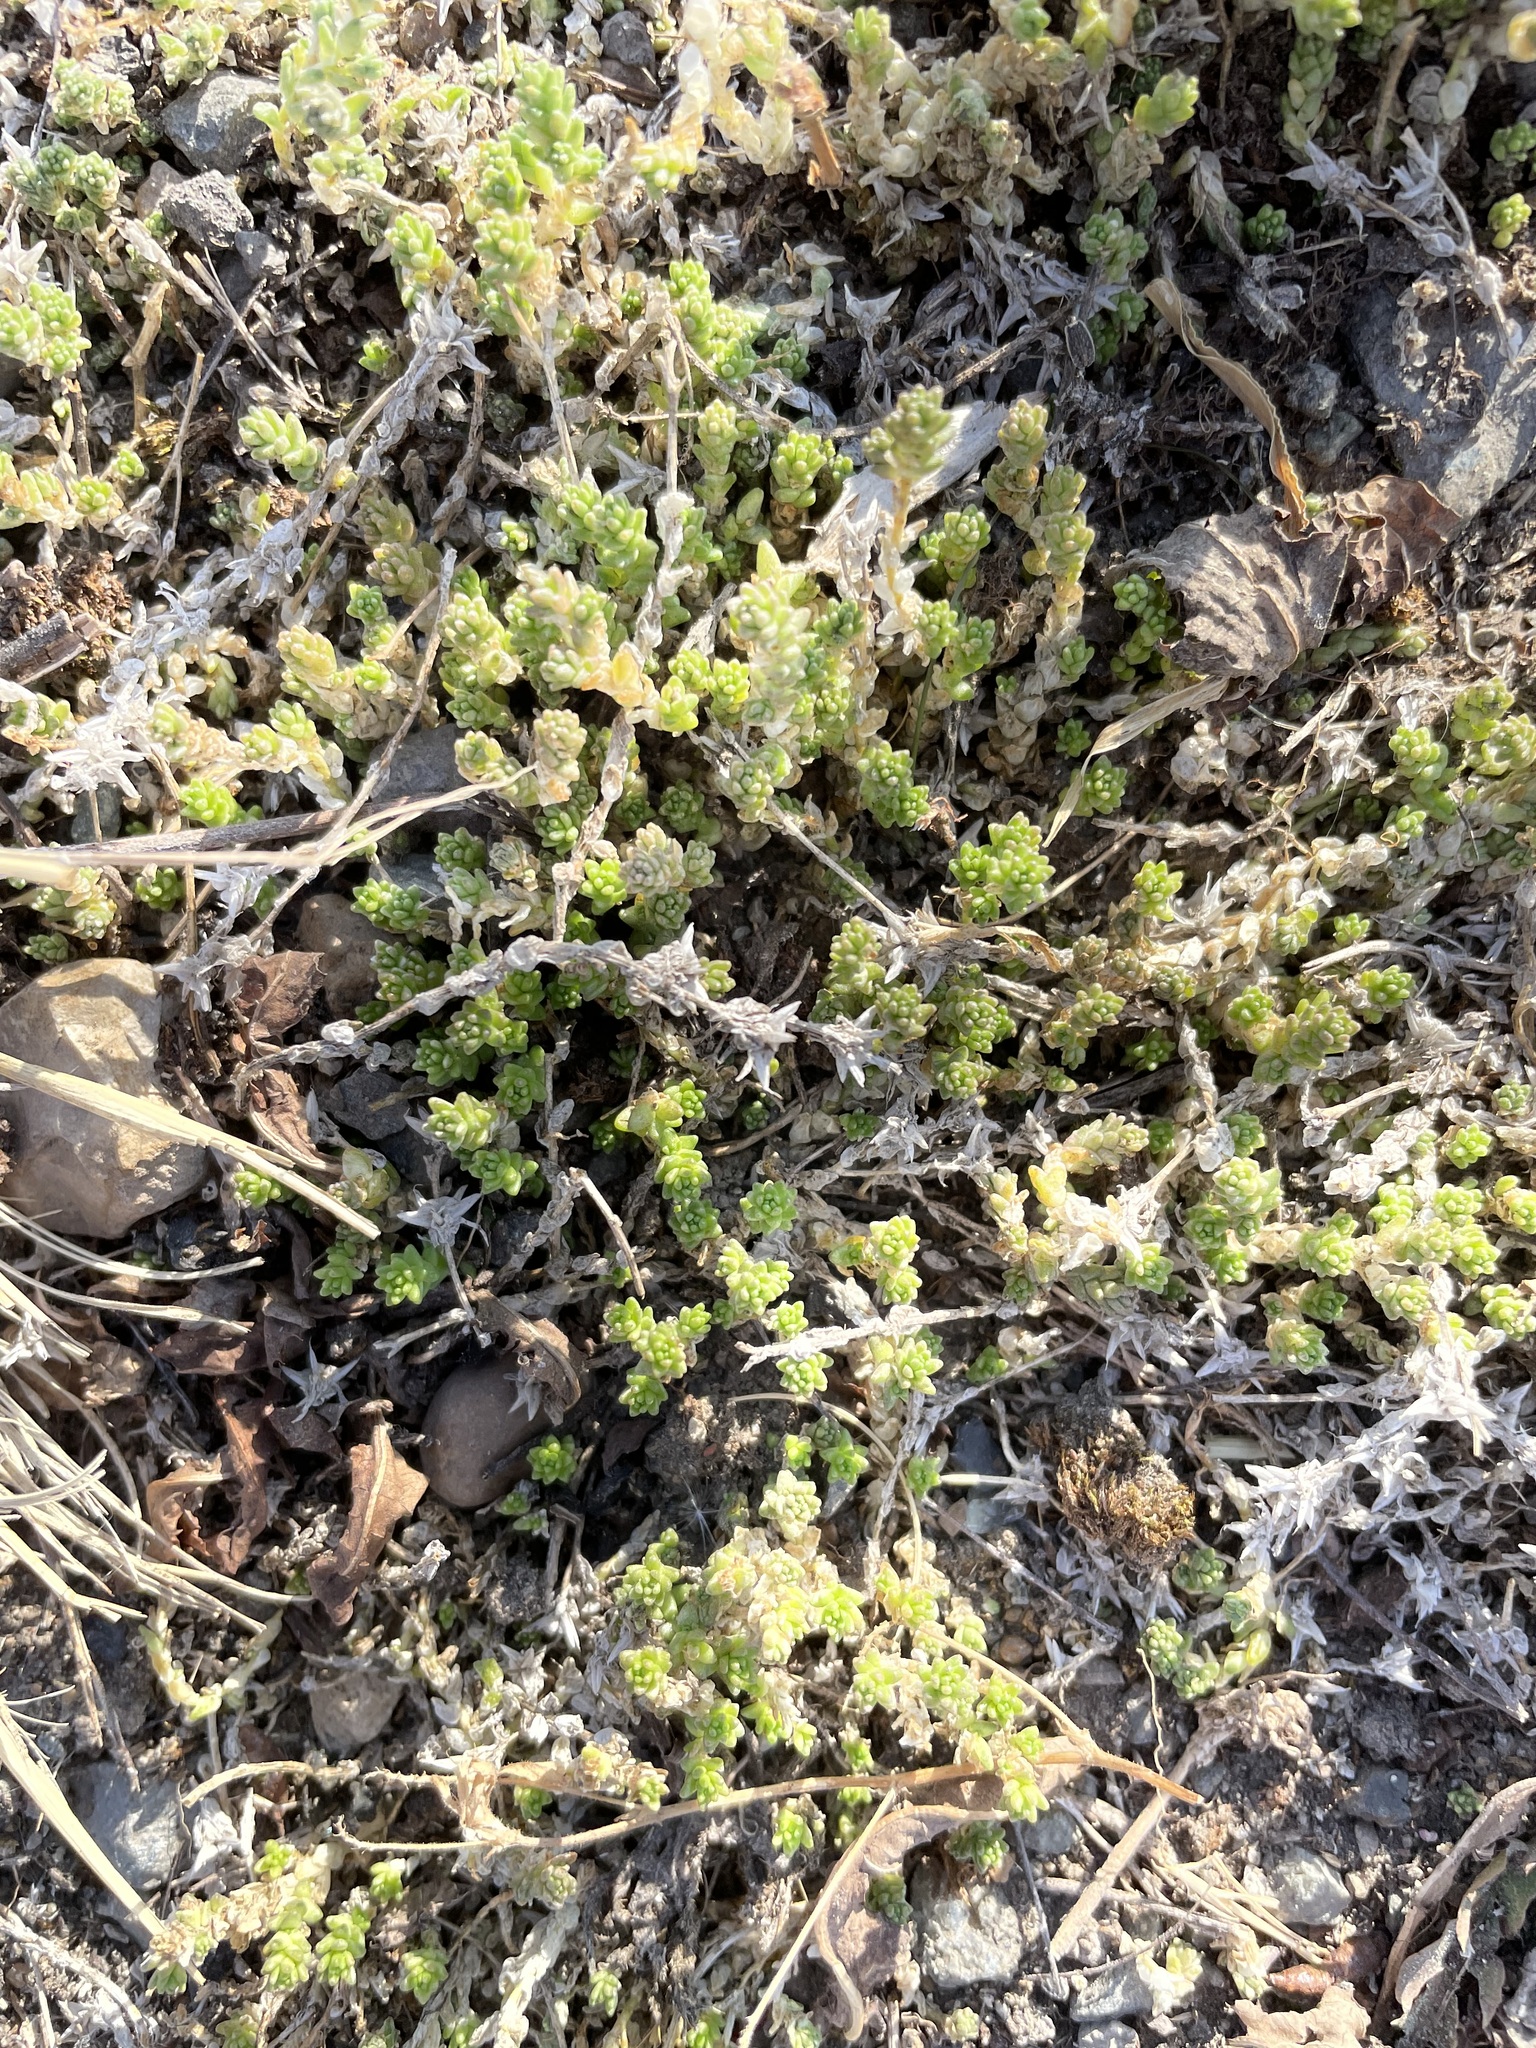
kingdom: Plantae
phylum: Tracheophyta
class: Magnoliopsida
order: Saxifragales
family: Crassulaceae
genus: Sedum
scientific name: Sedum acre
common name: Biting stonecrop
